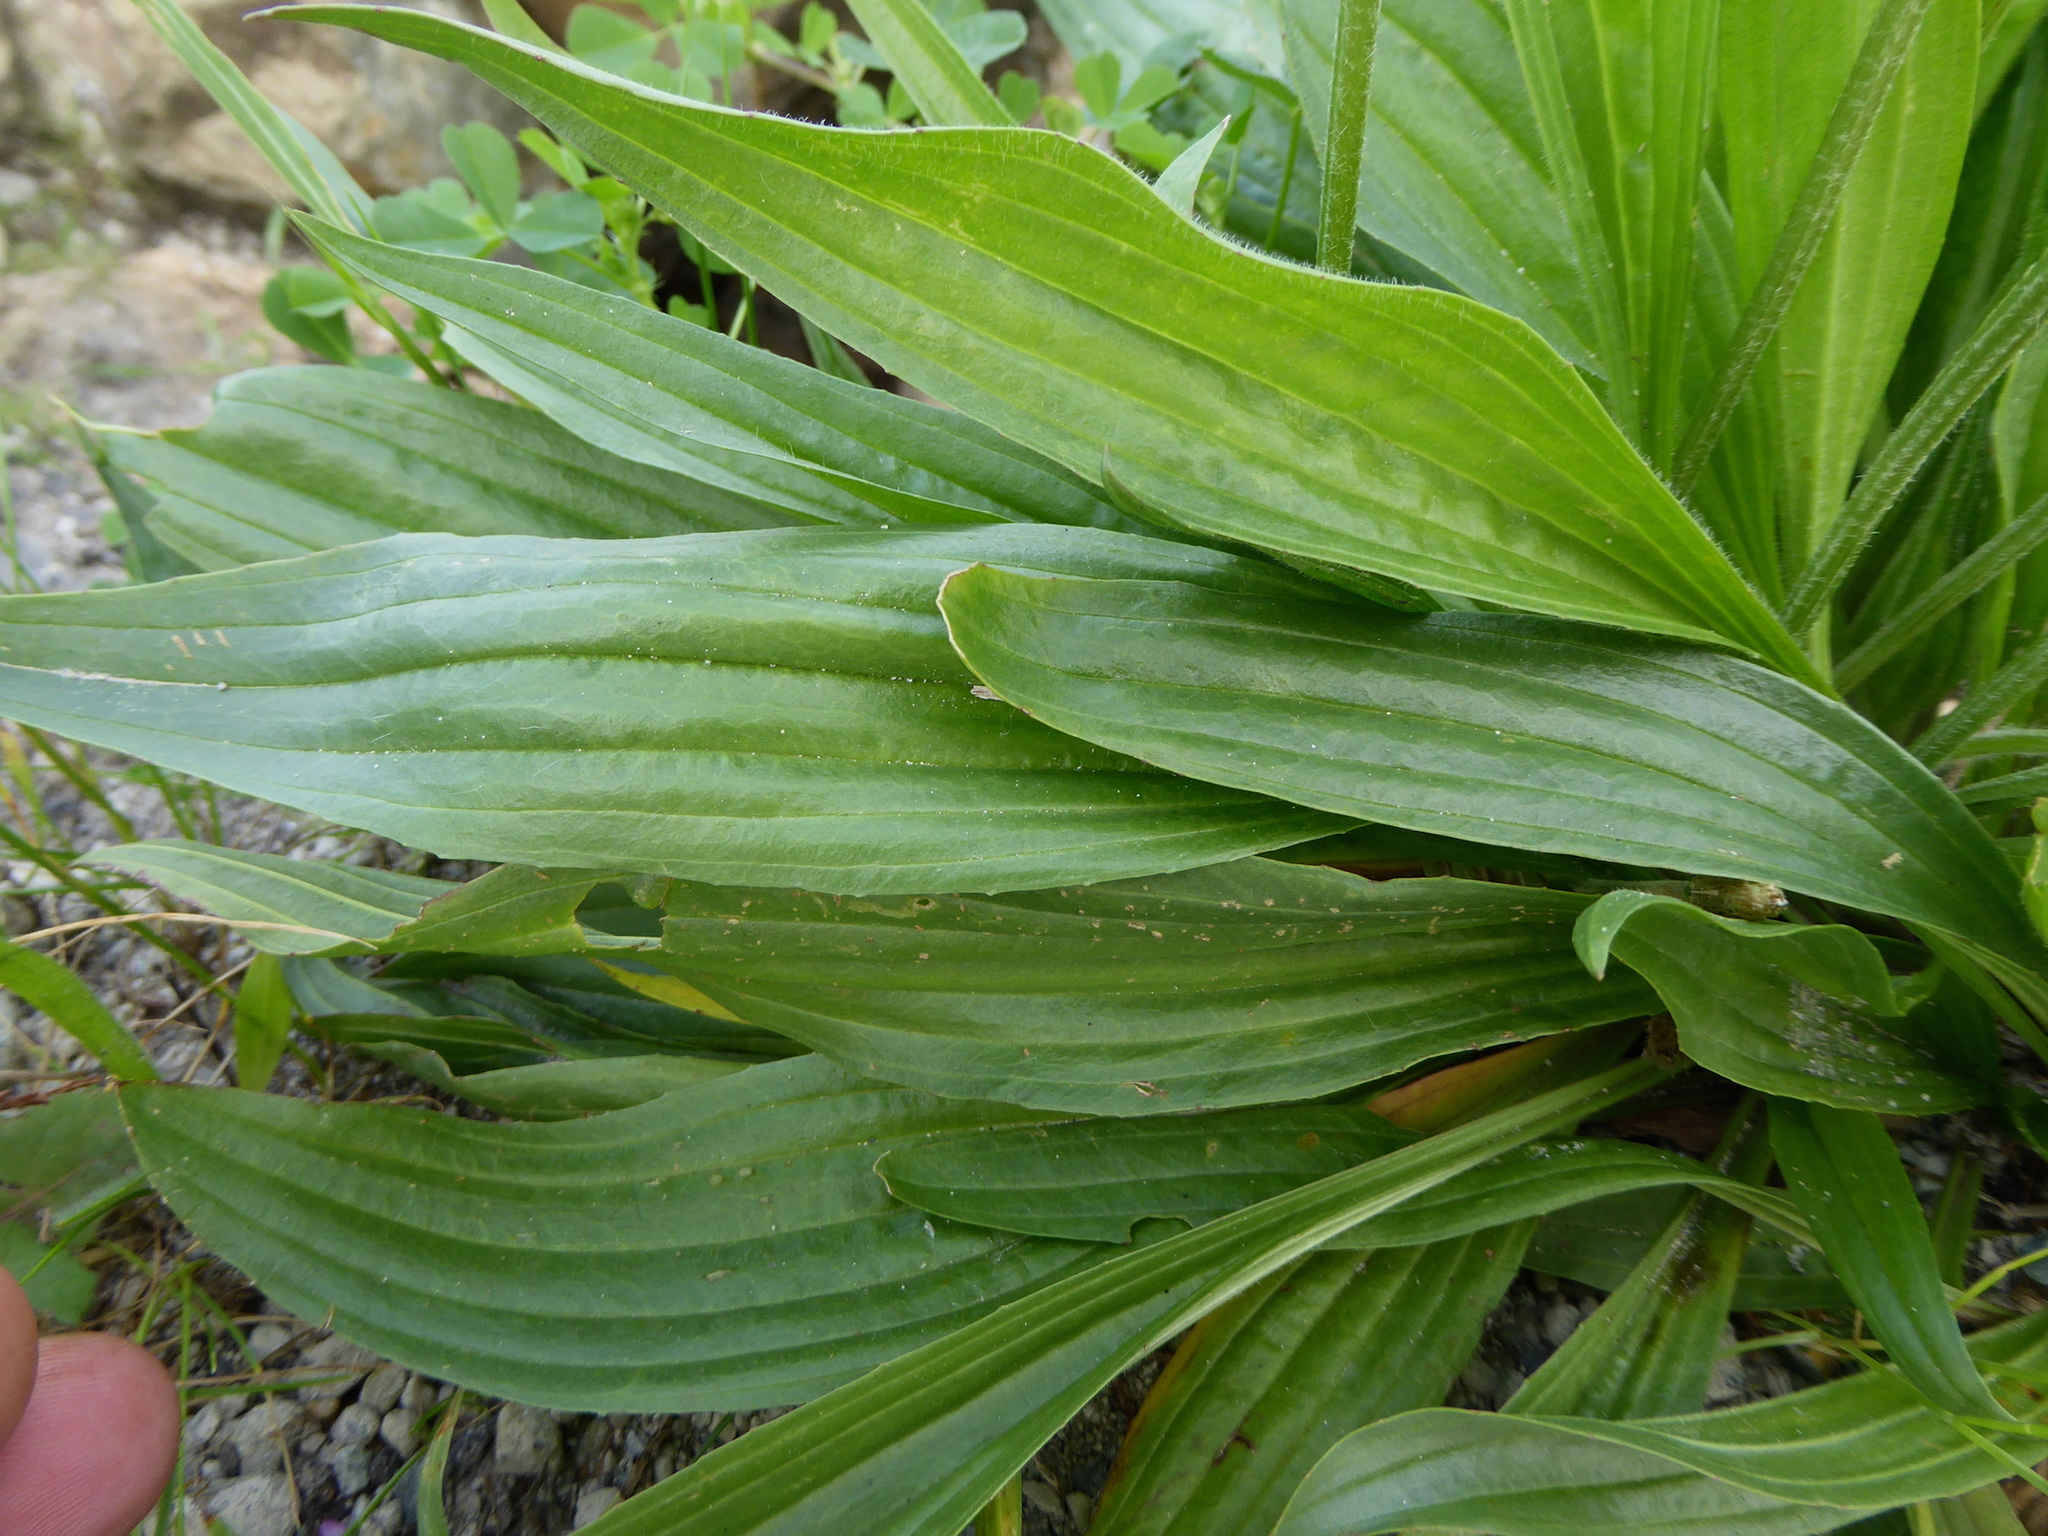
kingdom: Plantae
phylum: Tracheophyta
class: Magnoliopsida
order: Lamiales
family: Plantaginaceae
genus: Plantago
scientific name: Plantago lanceolata
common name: Ribwort plantain
